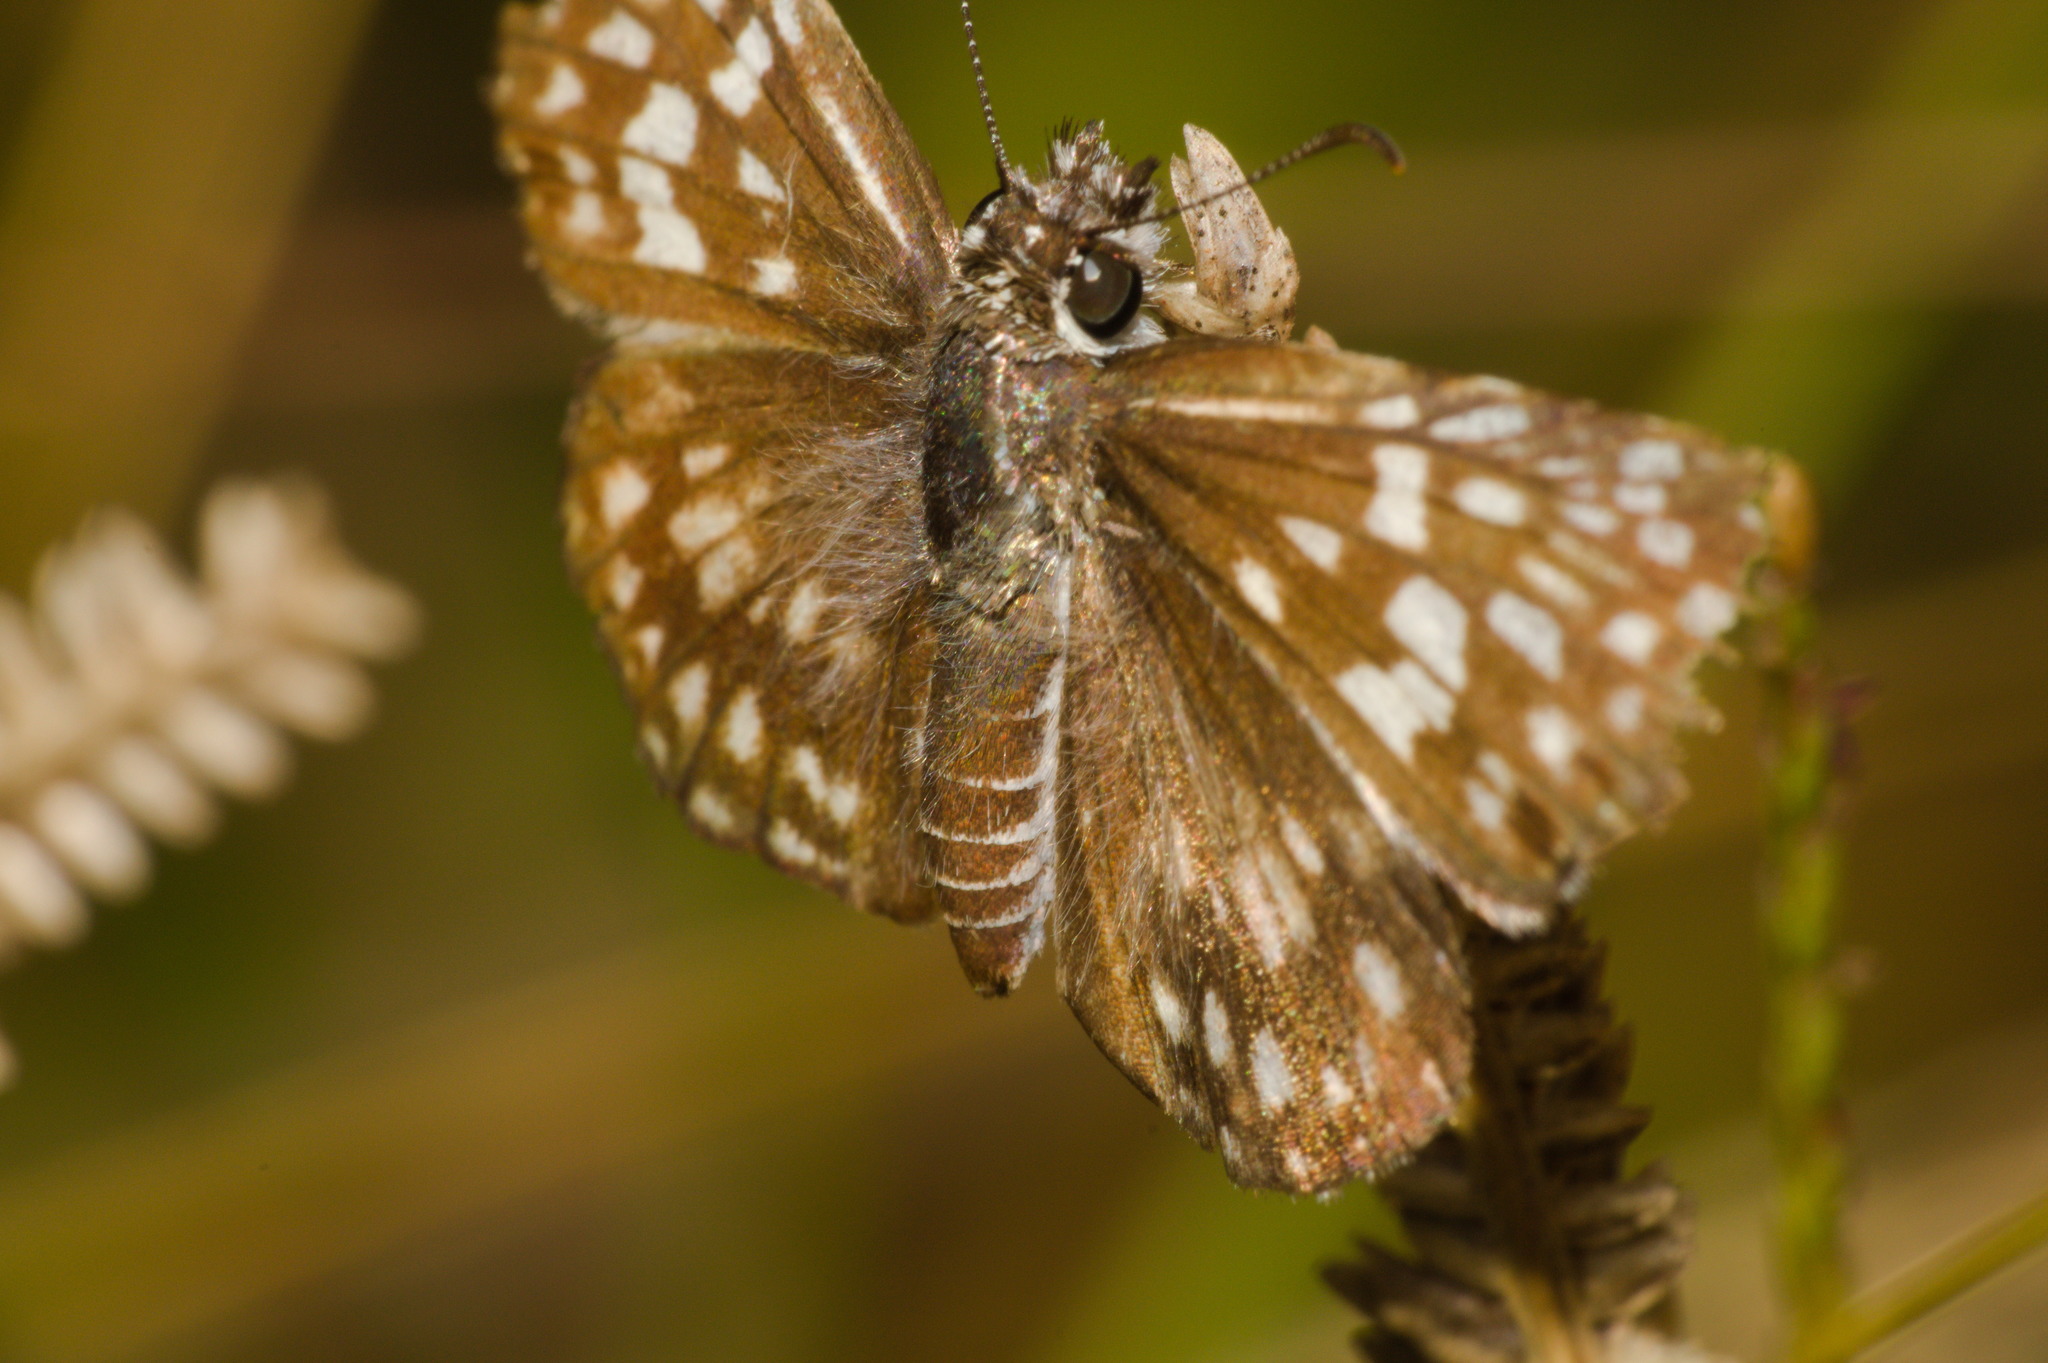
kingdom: Animalia
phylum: Arthropoda
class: Insecta
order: Lepidoptera
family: Hesperiidae
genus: Pyrgus
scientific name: Pyrgus oileus
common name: Tropical checkered-skipper
